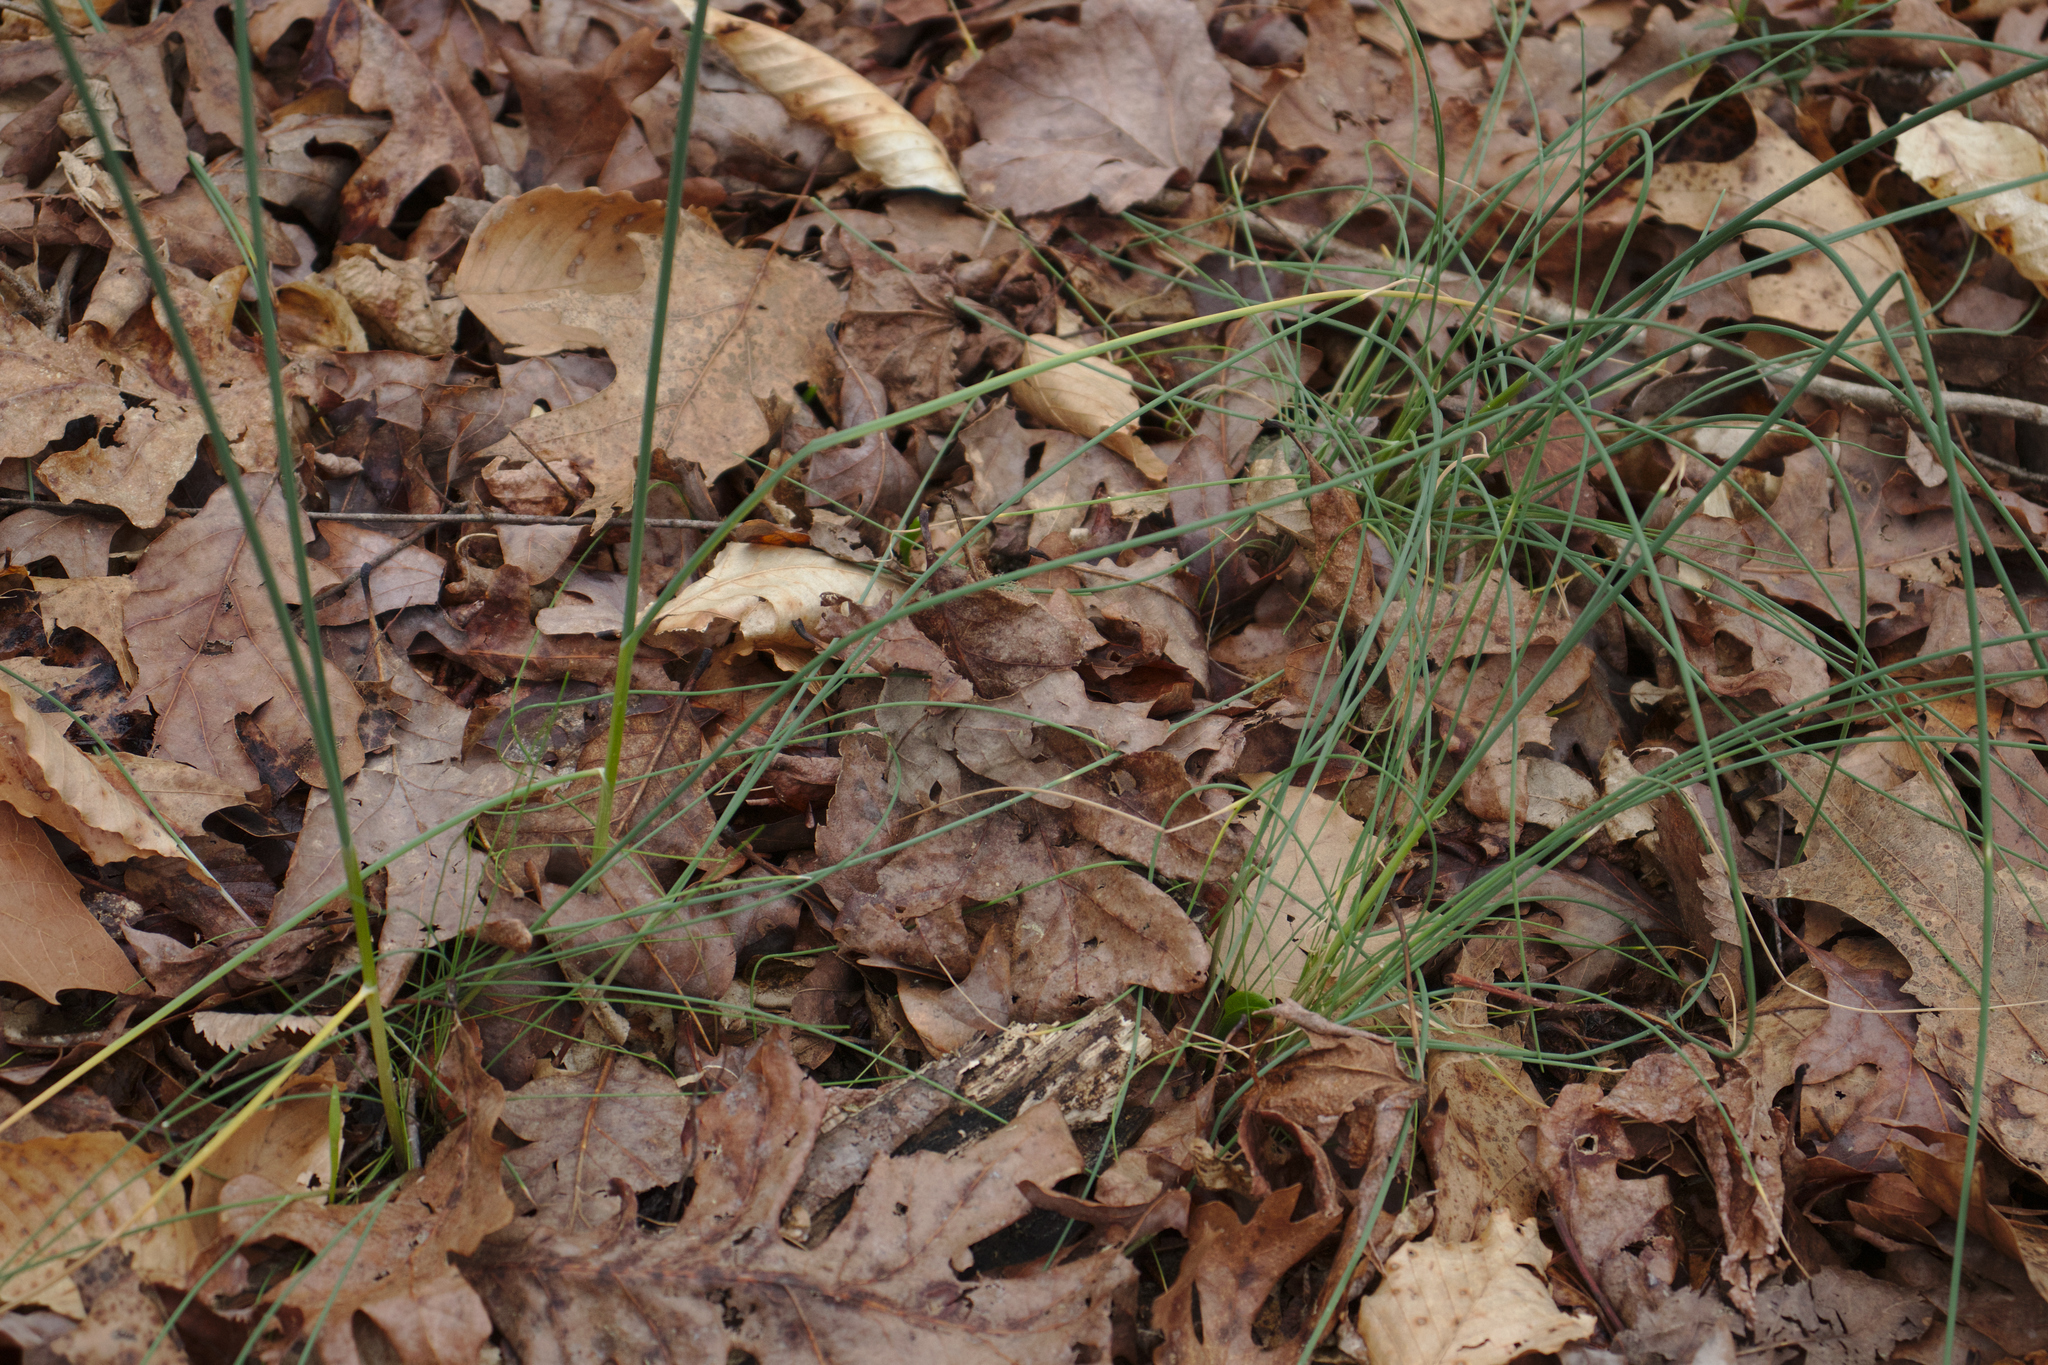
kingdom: Plantae
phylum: Tracheophyta
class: Liliopsida
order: Asparagales
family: Amaryllidaceae
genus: Allium
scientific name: Allium vineale
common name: Crow garlic
